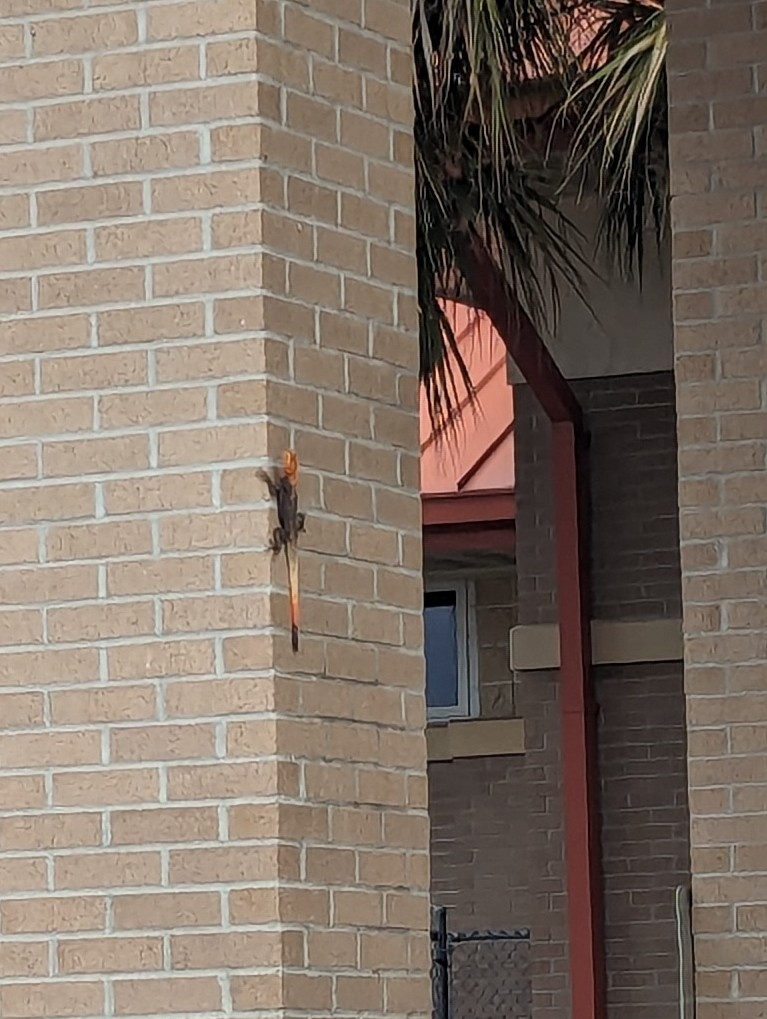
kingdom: Animalia
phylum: Chordata
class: Squamata
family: Agamidae
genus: Agama
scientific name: Agama picticauda
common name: Red-headed agama
